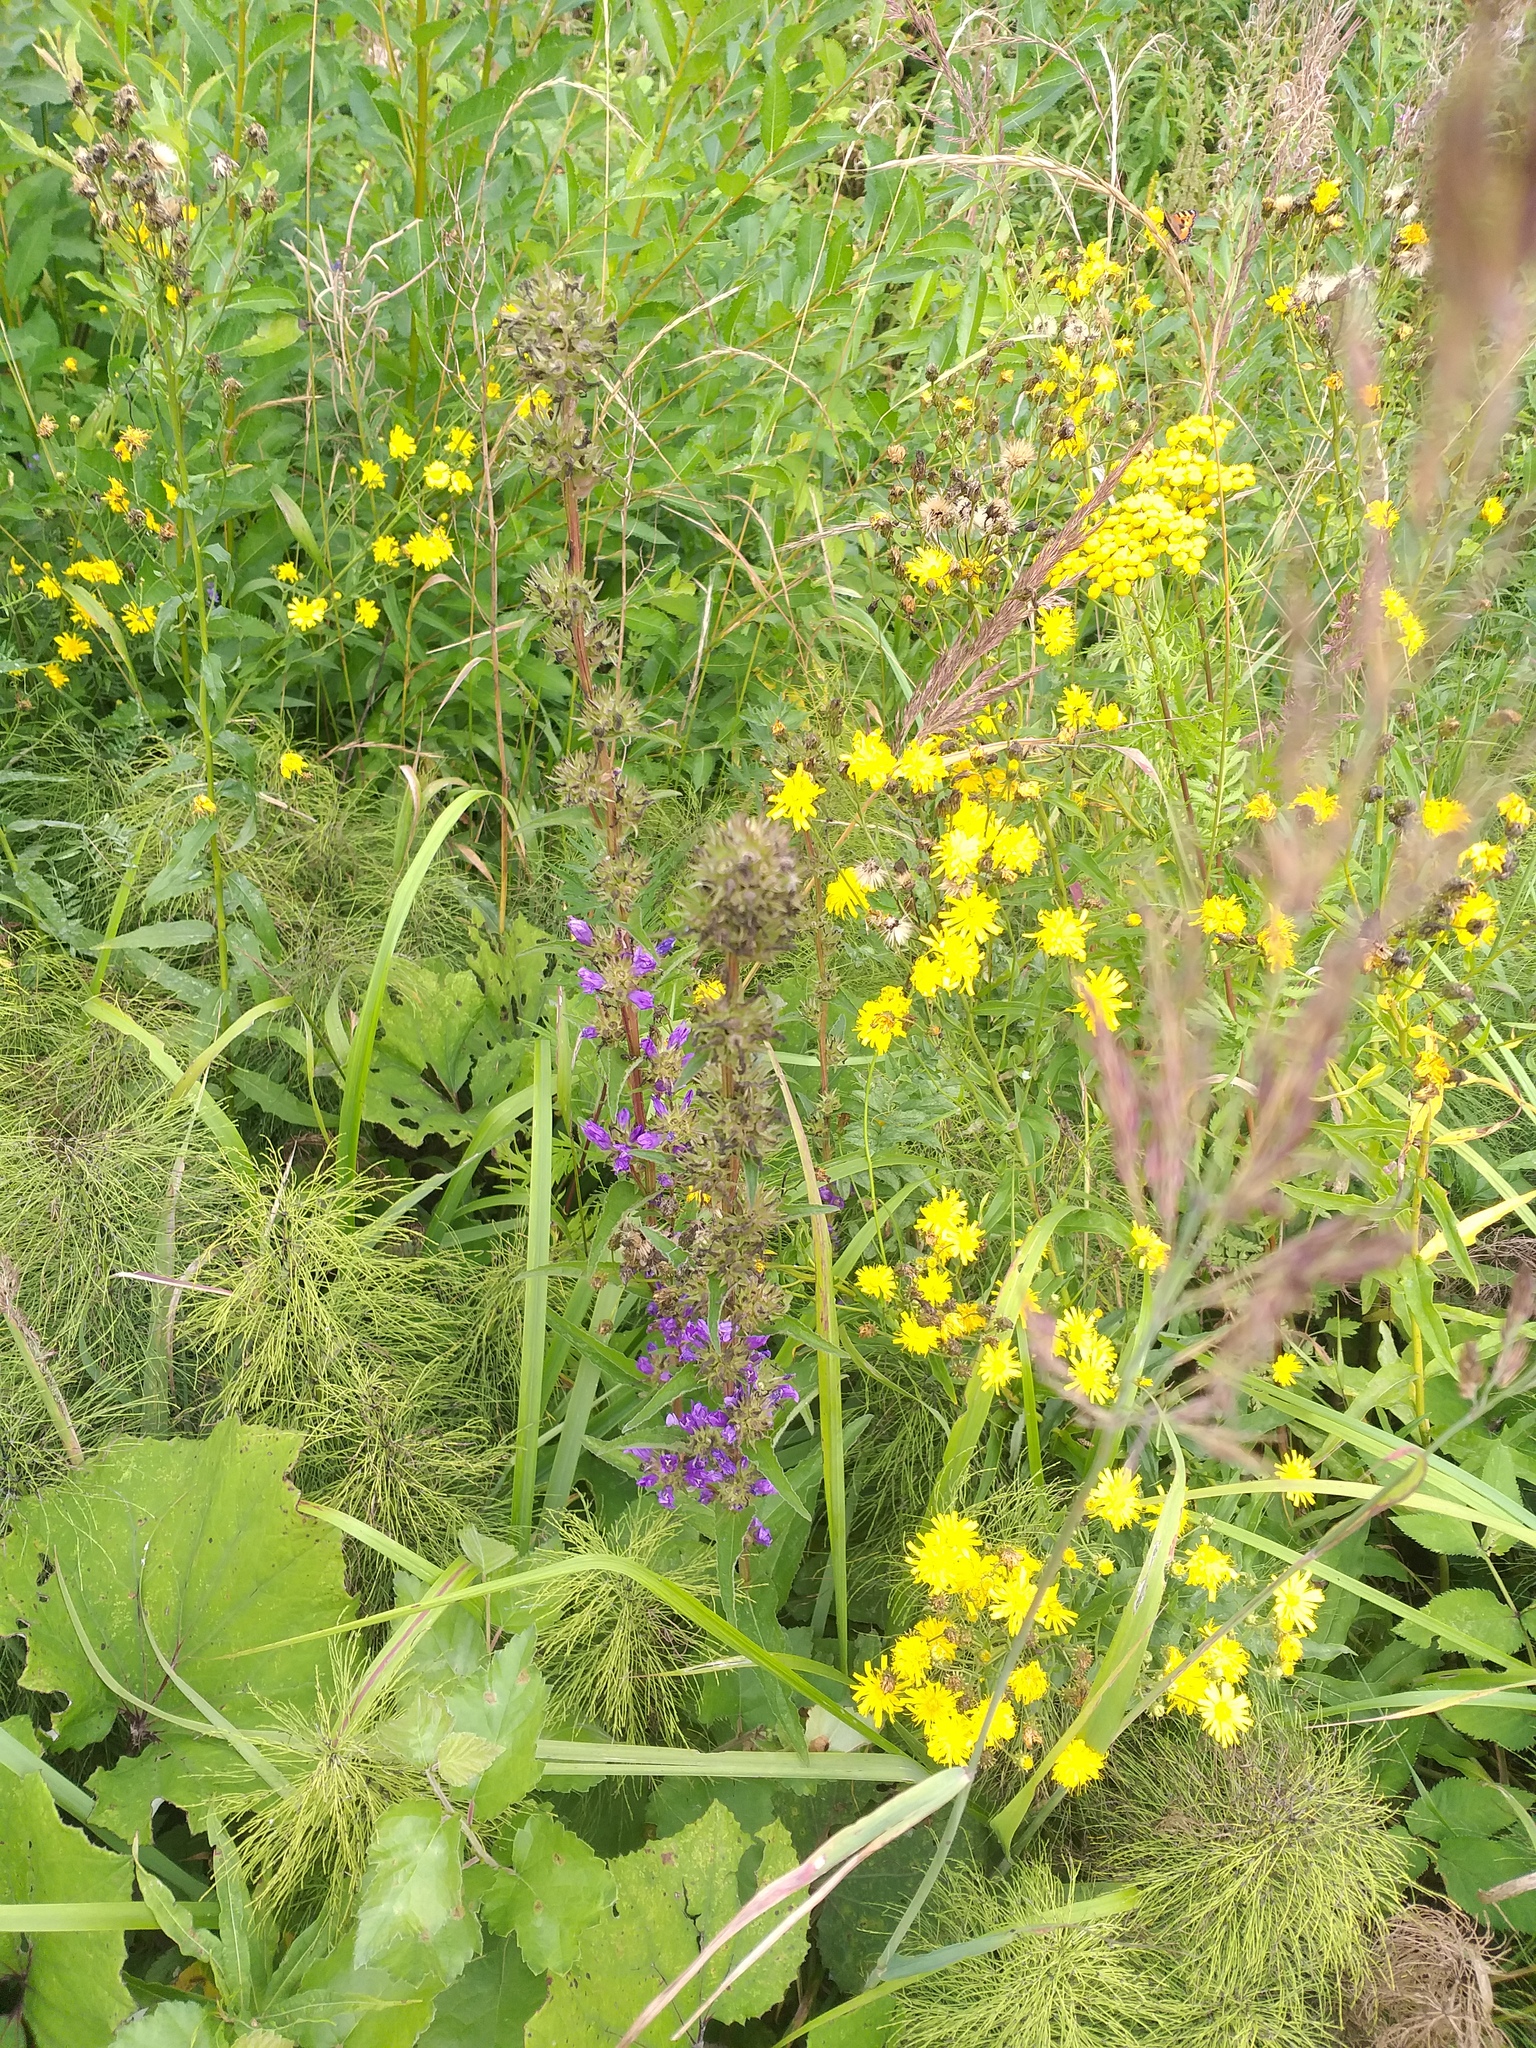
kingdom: Plantae
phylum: Tracheophyta
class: Polypodiopsida
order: Equisetales
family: Equisetaceae
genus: Equisetum
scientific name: Equisetum sylvaticum
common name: Wood horsetail
